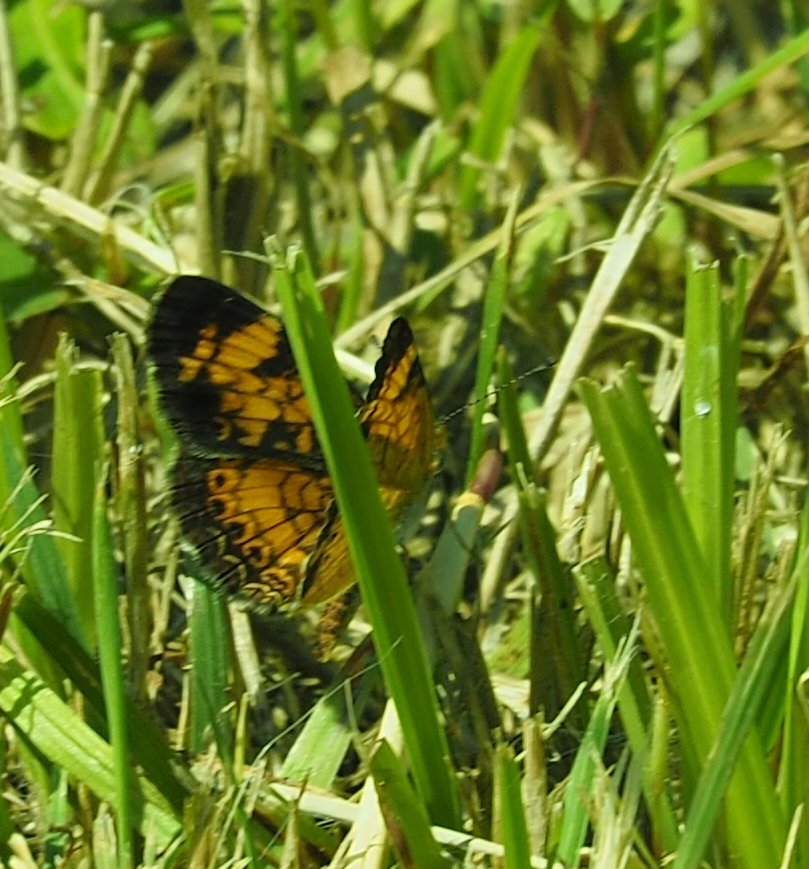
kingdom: Animalia
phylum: Arthropoda
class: Insecta
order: Lepidoptera
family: Nymphalidae
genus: Phyciodes
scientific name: Phyciodes tharos
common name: Pearl crescent
